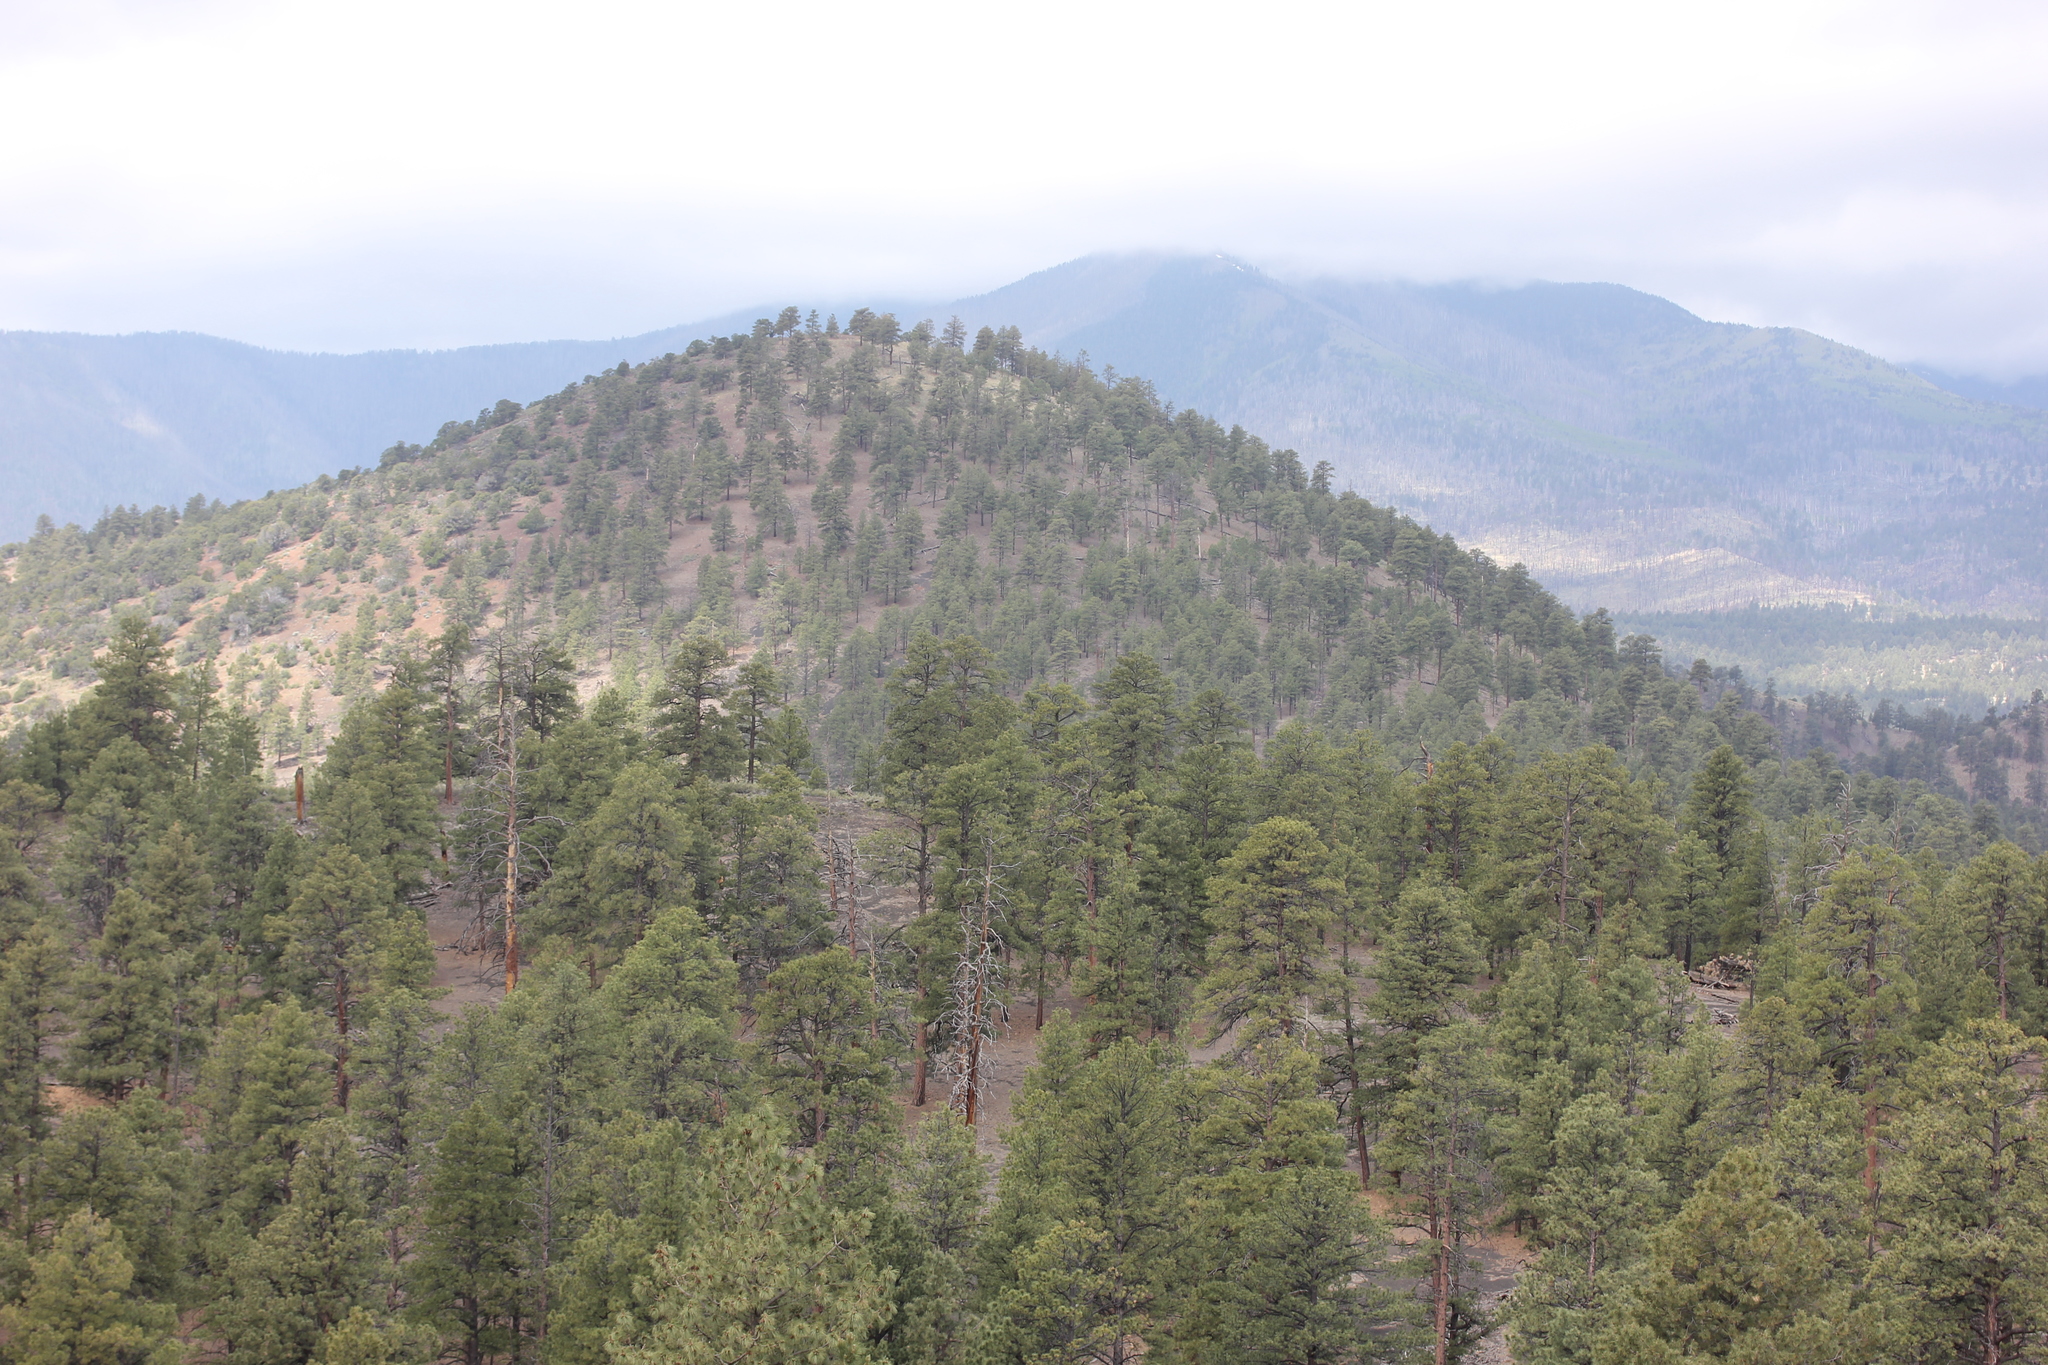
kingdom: Plantae
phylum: Tracheophyta
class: Pinopsida
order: Pinales
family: Pinaceae
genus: Pinus
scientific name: Pinus ponderosa
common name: Western yellow-pine
